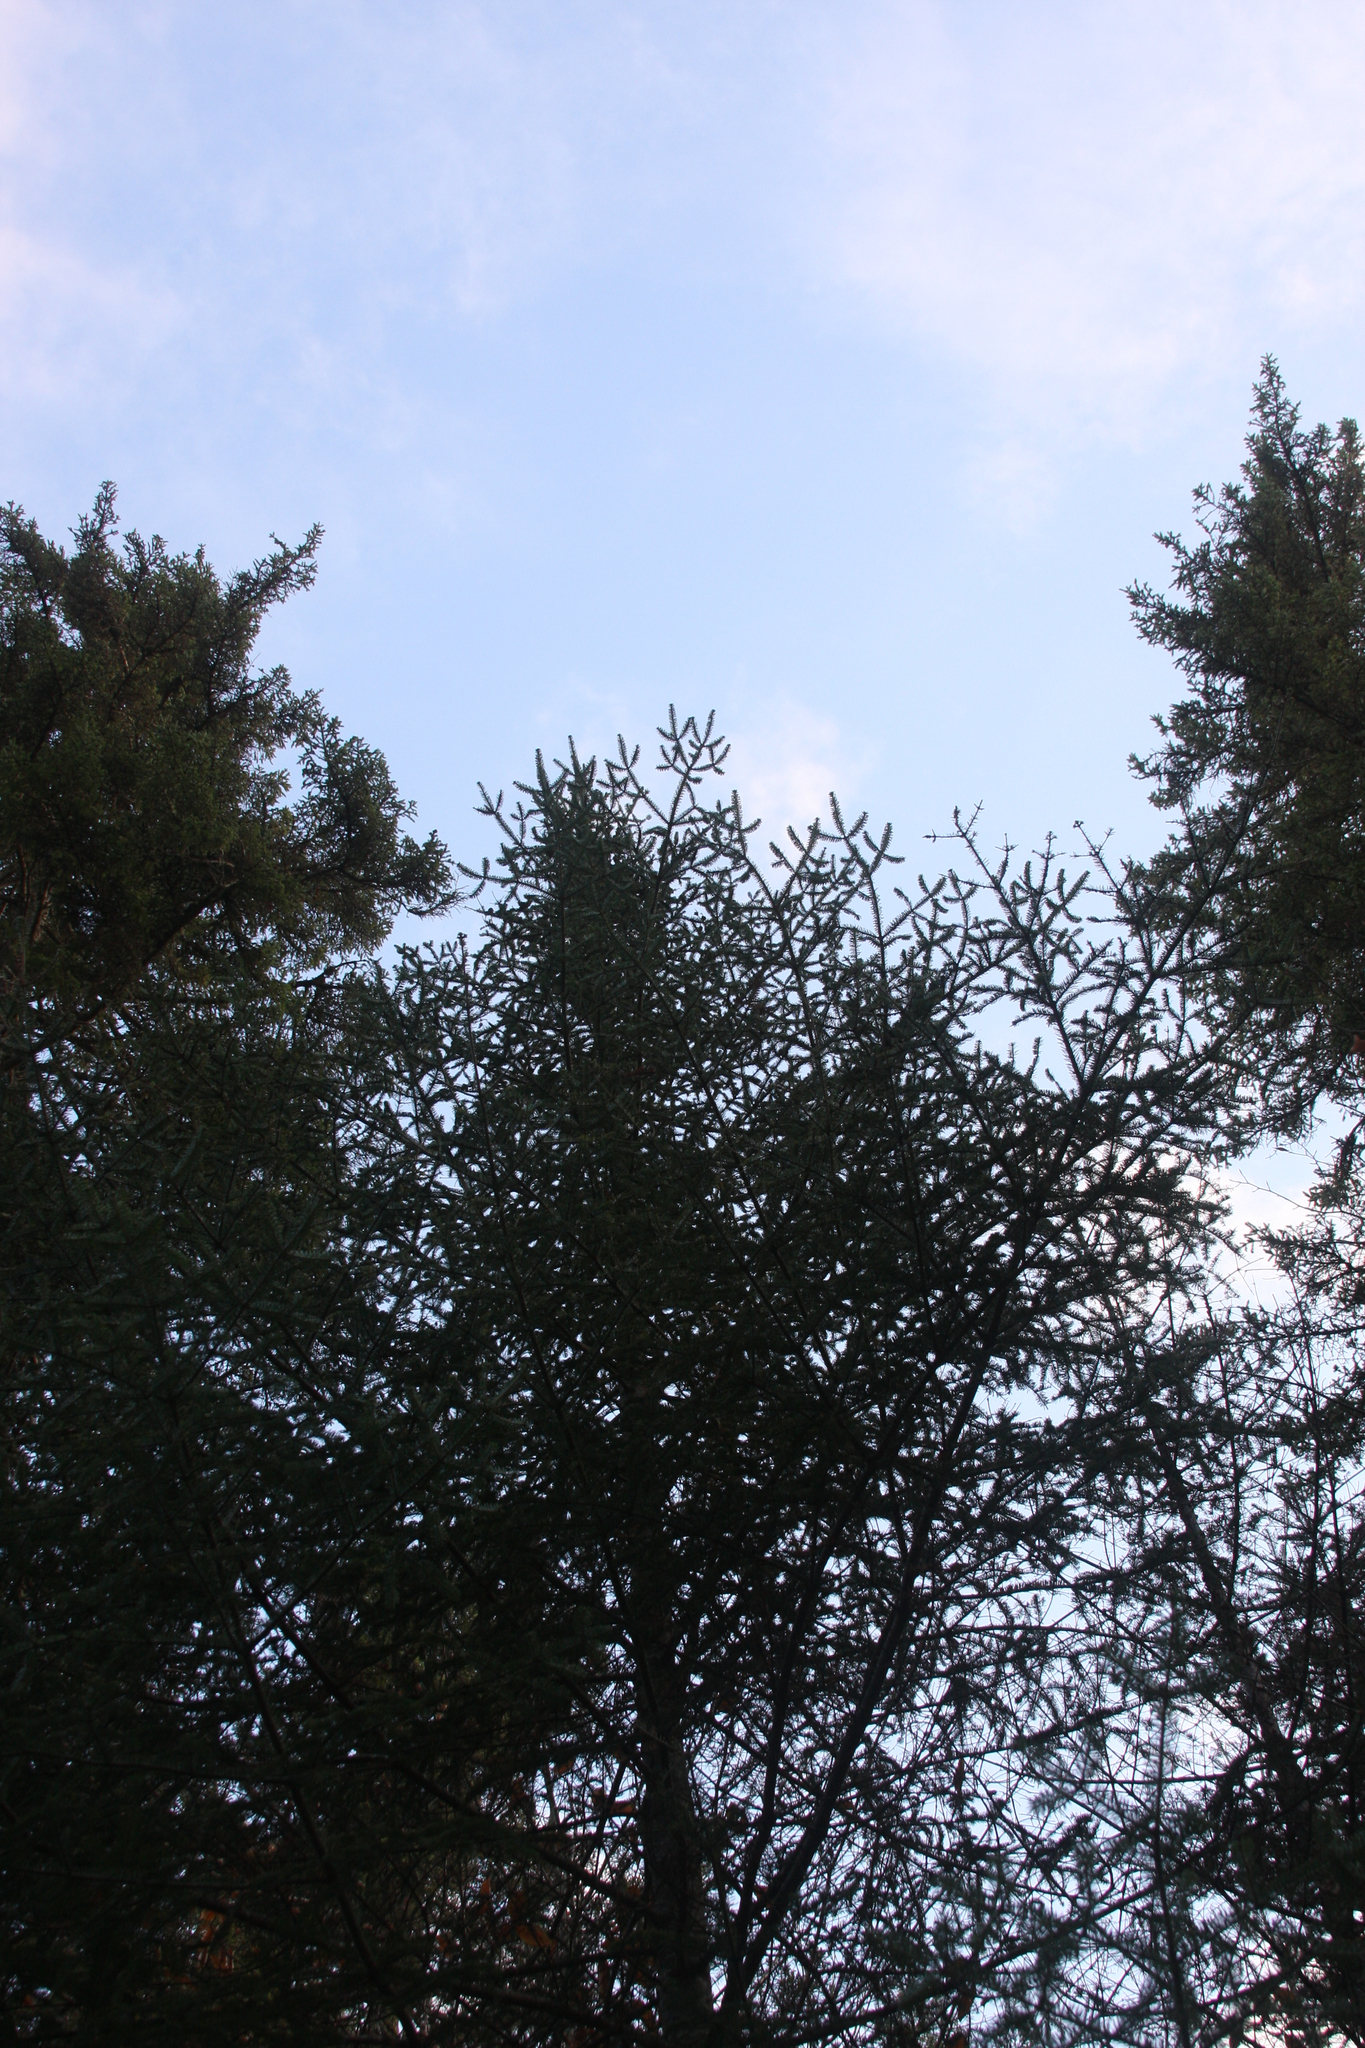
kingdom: Plantae
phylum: Tracheophyta
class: Pinopsida
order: Pinales
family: Pinaceae
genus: Abies
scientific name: Abies balsamea
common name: Balsam fir
